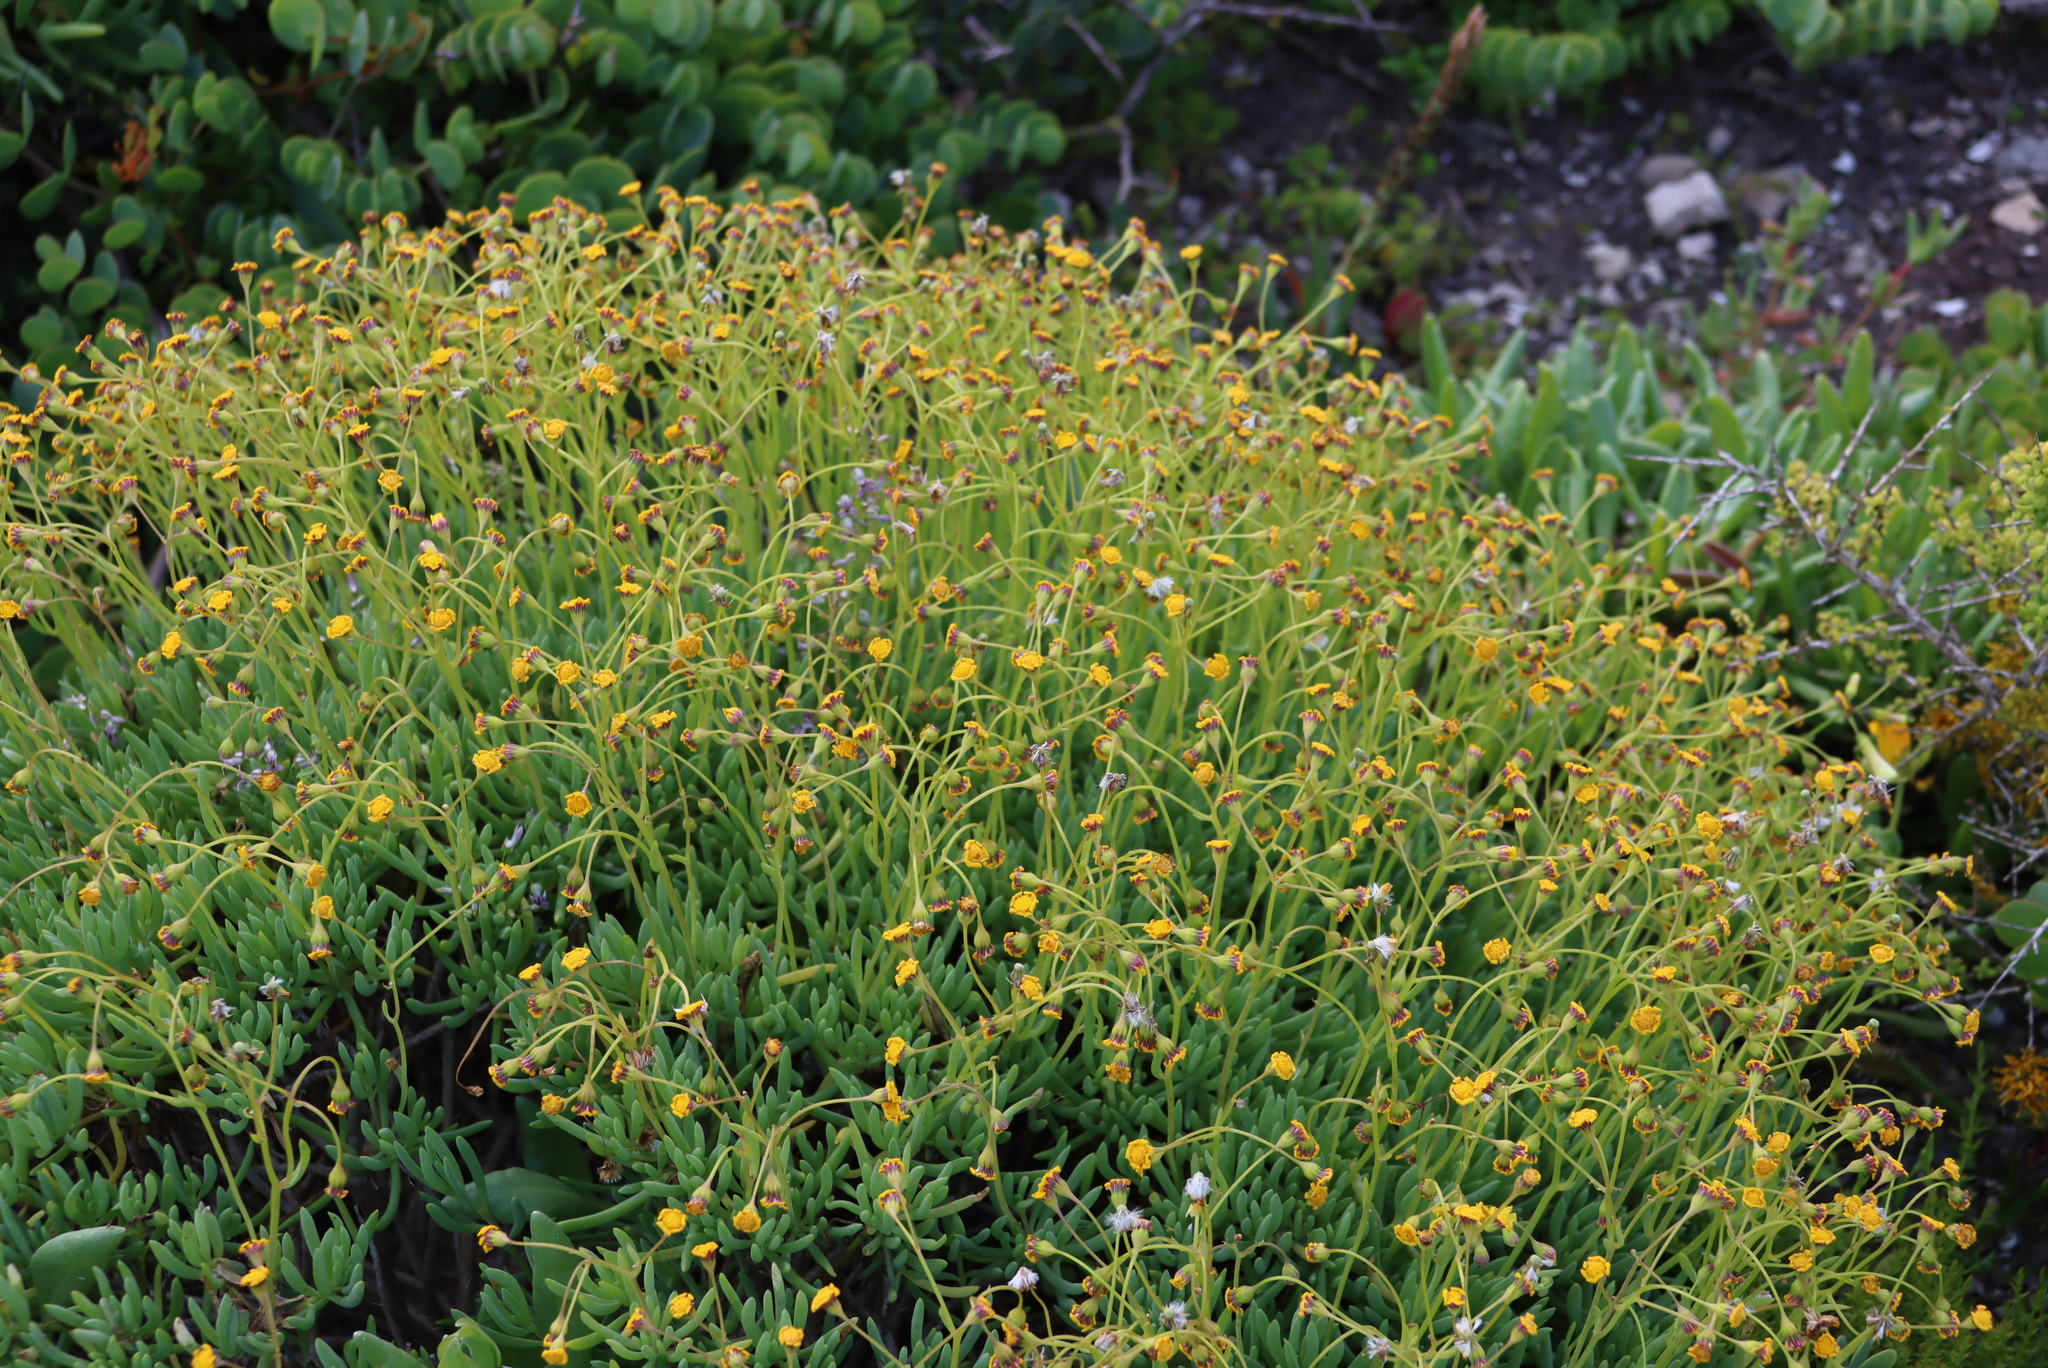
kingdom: Plantae
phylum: Tracheophyta
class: Magnoliopsida
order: Asterales
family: Asteraceae
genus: Crassothonna
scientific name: Crassothonna cylindrica
